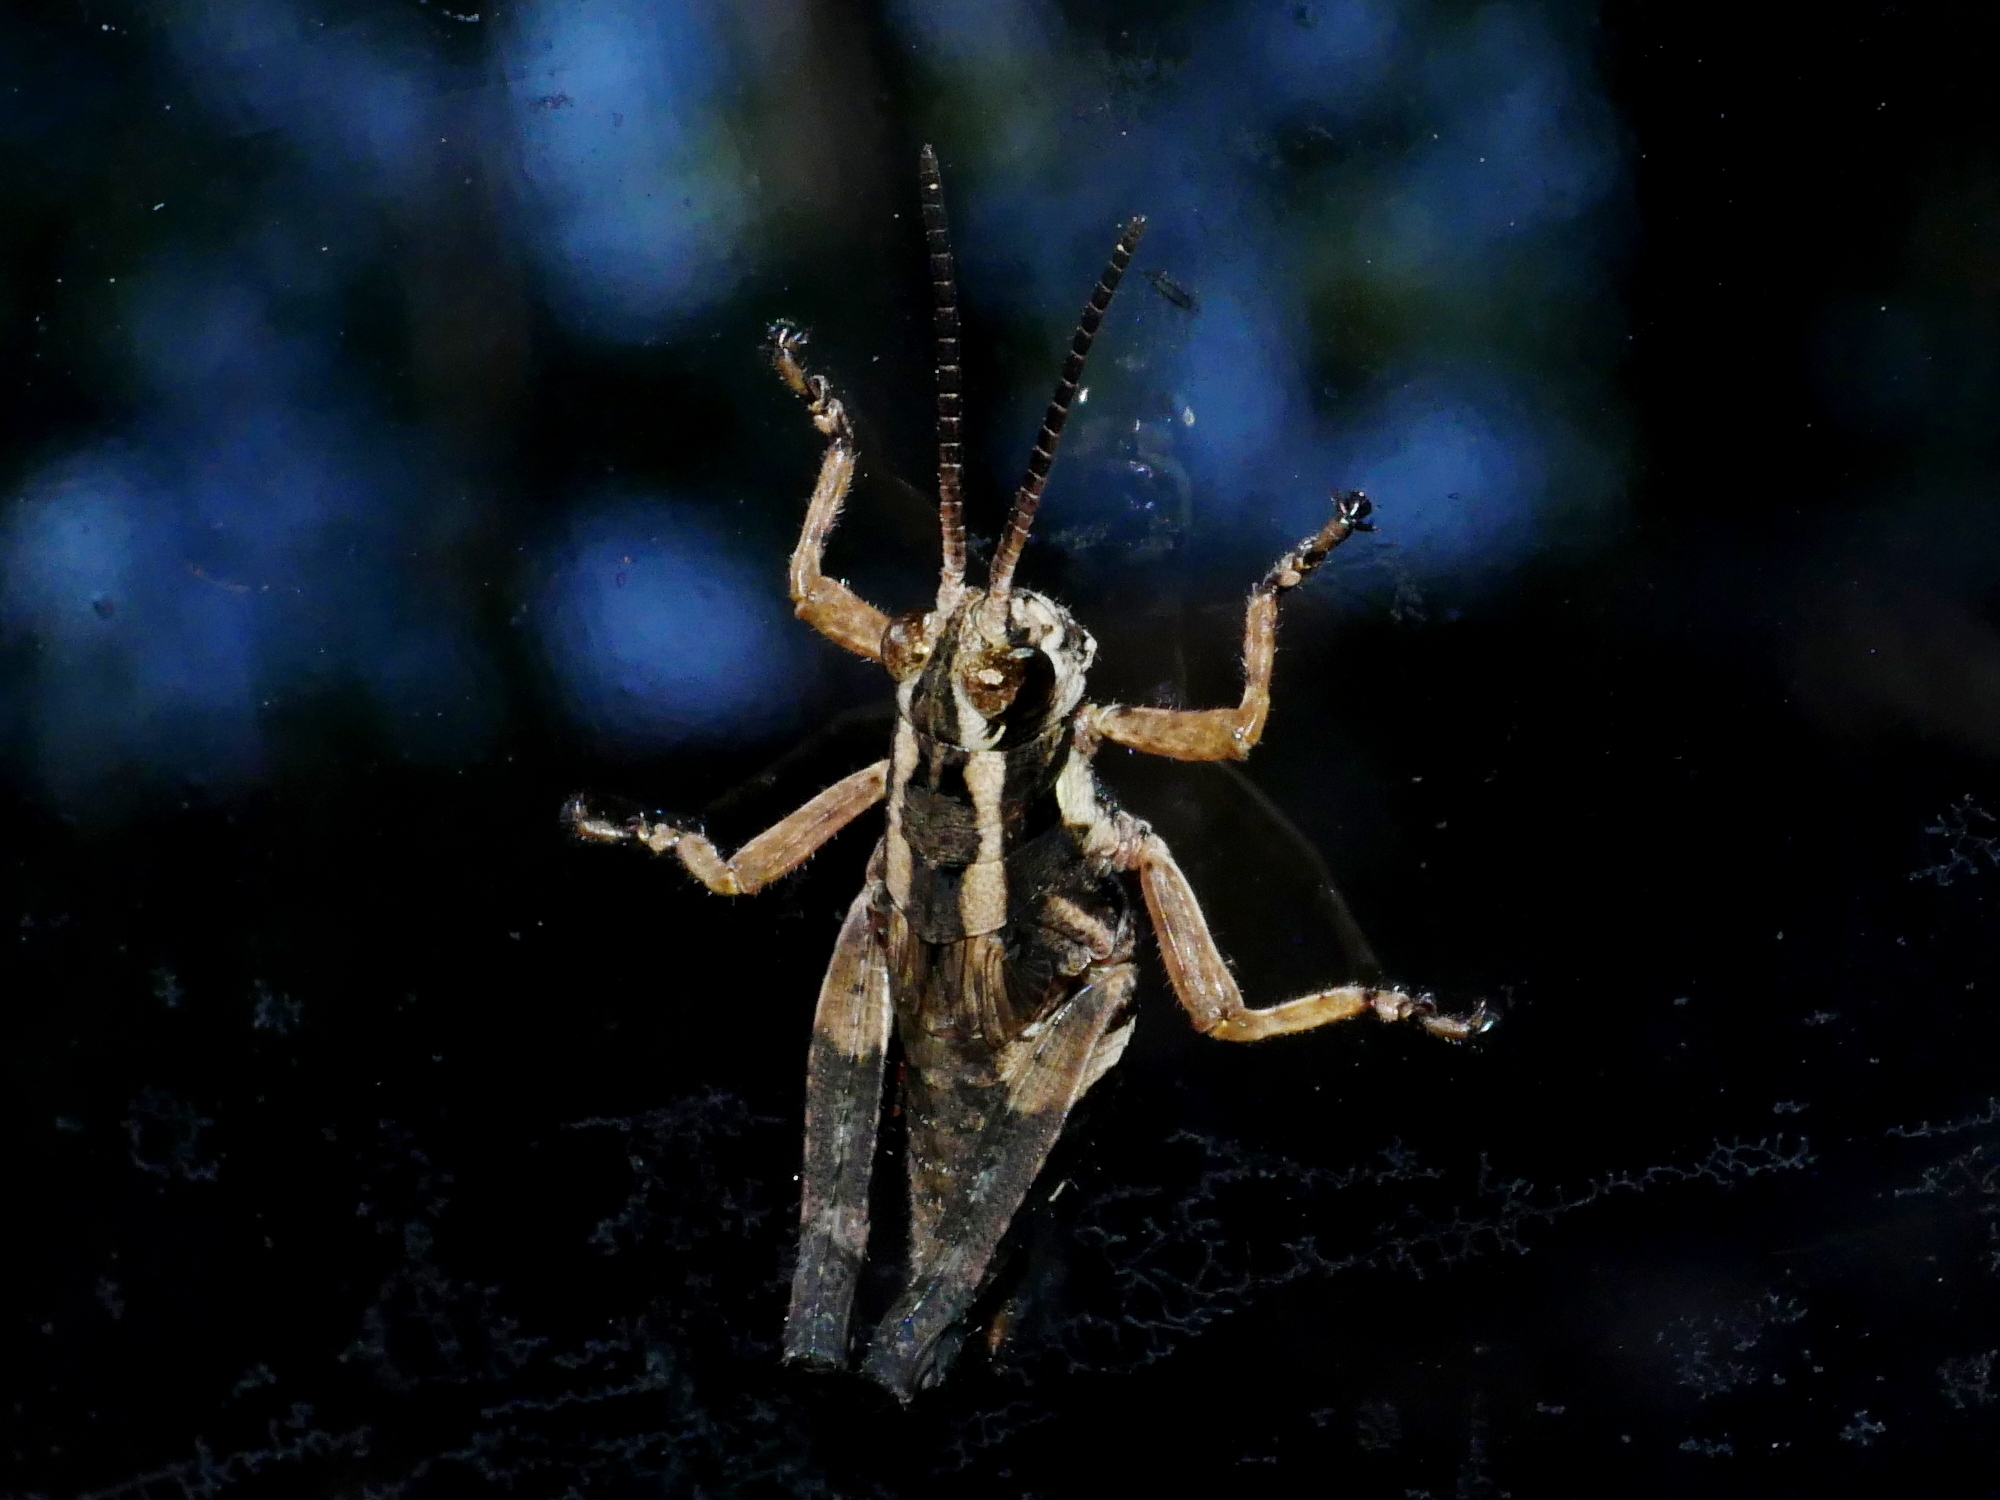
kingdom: Animalia
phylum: Arthropoda
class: Insecta
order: Orthoptera
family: Acrididae
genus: Traulia
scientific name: Traulia ornata
